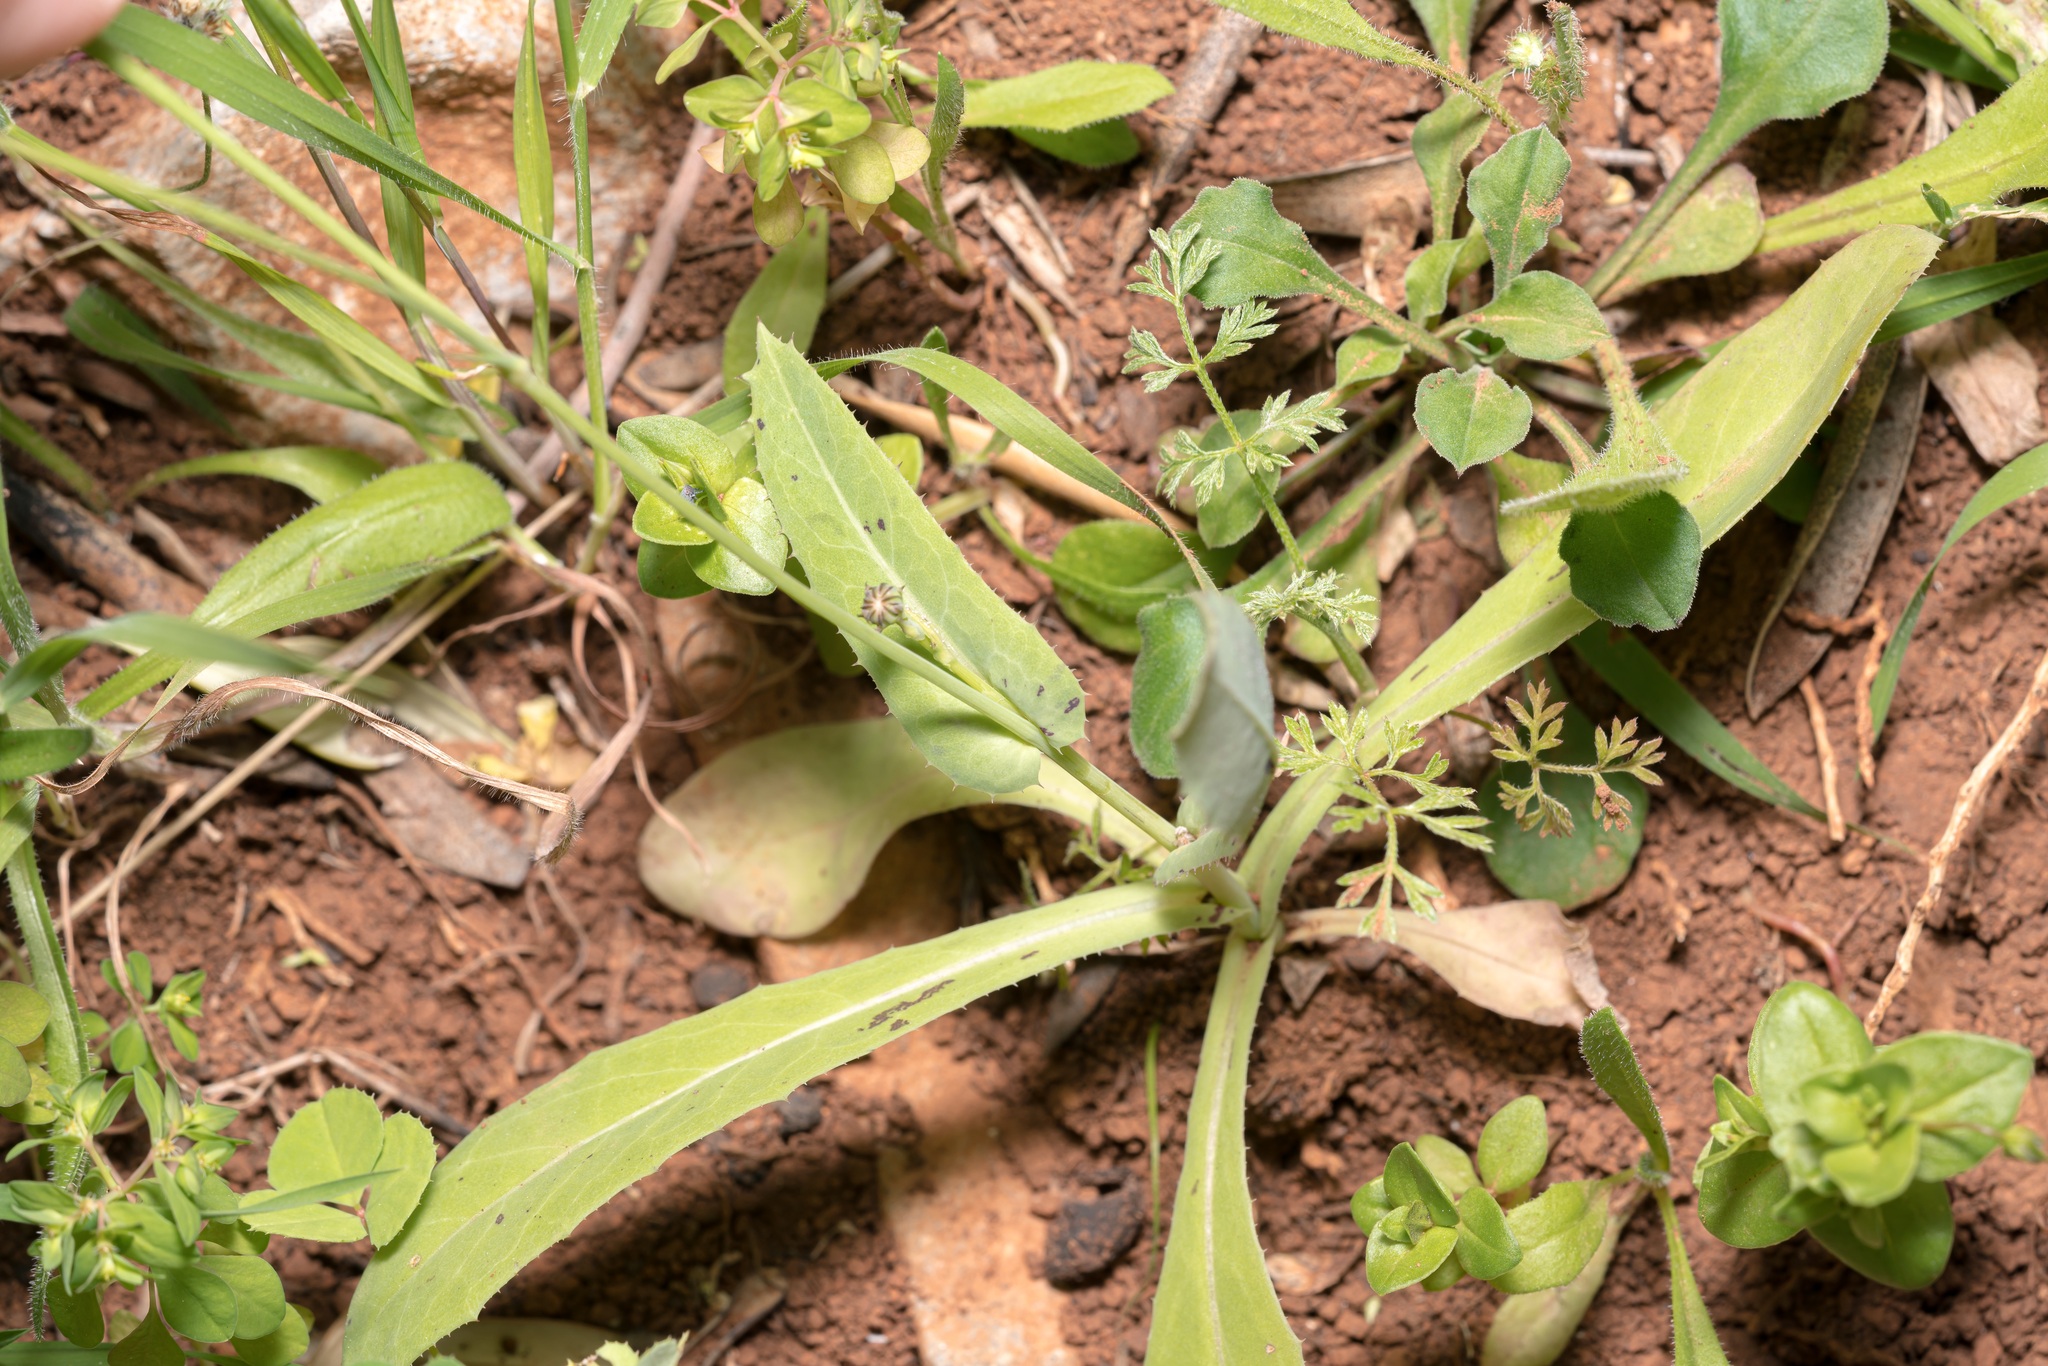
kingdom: Plantae
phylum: Tracheophyta
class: Magnoliopsida
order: Asterales
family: Asteraceae
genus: Reichardia
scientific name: Reichardia intermedia
